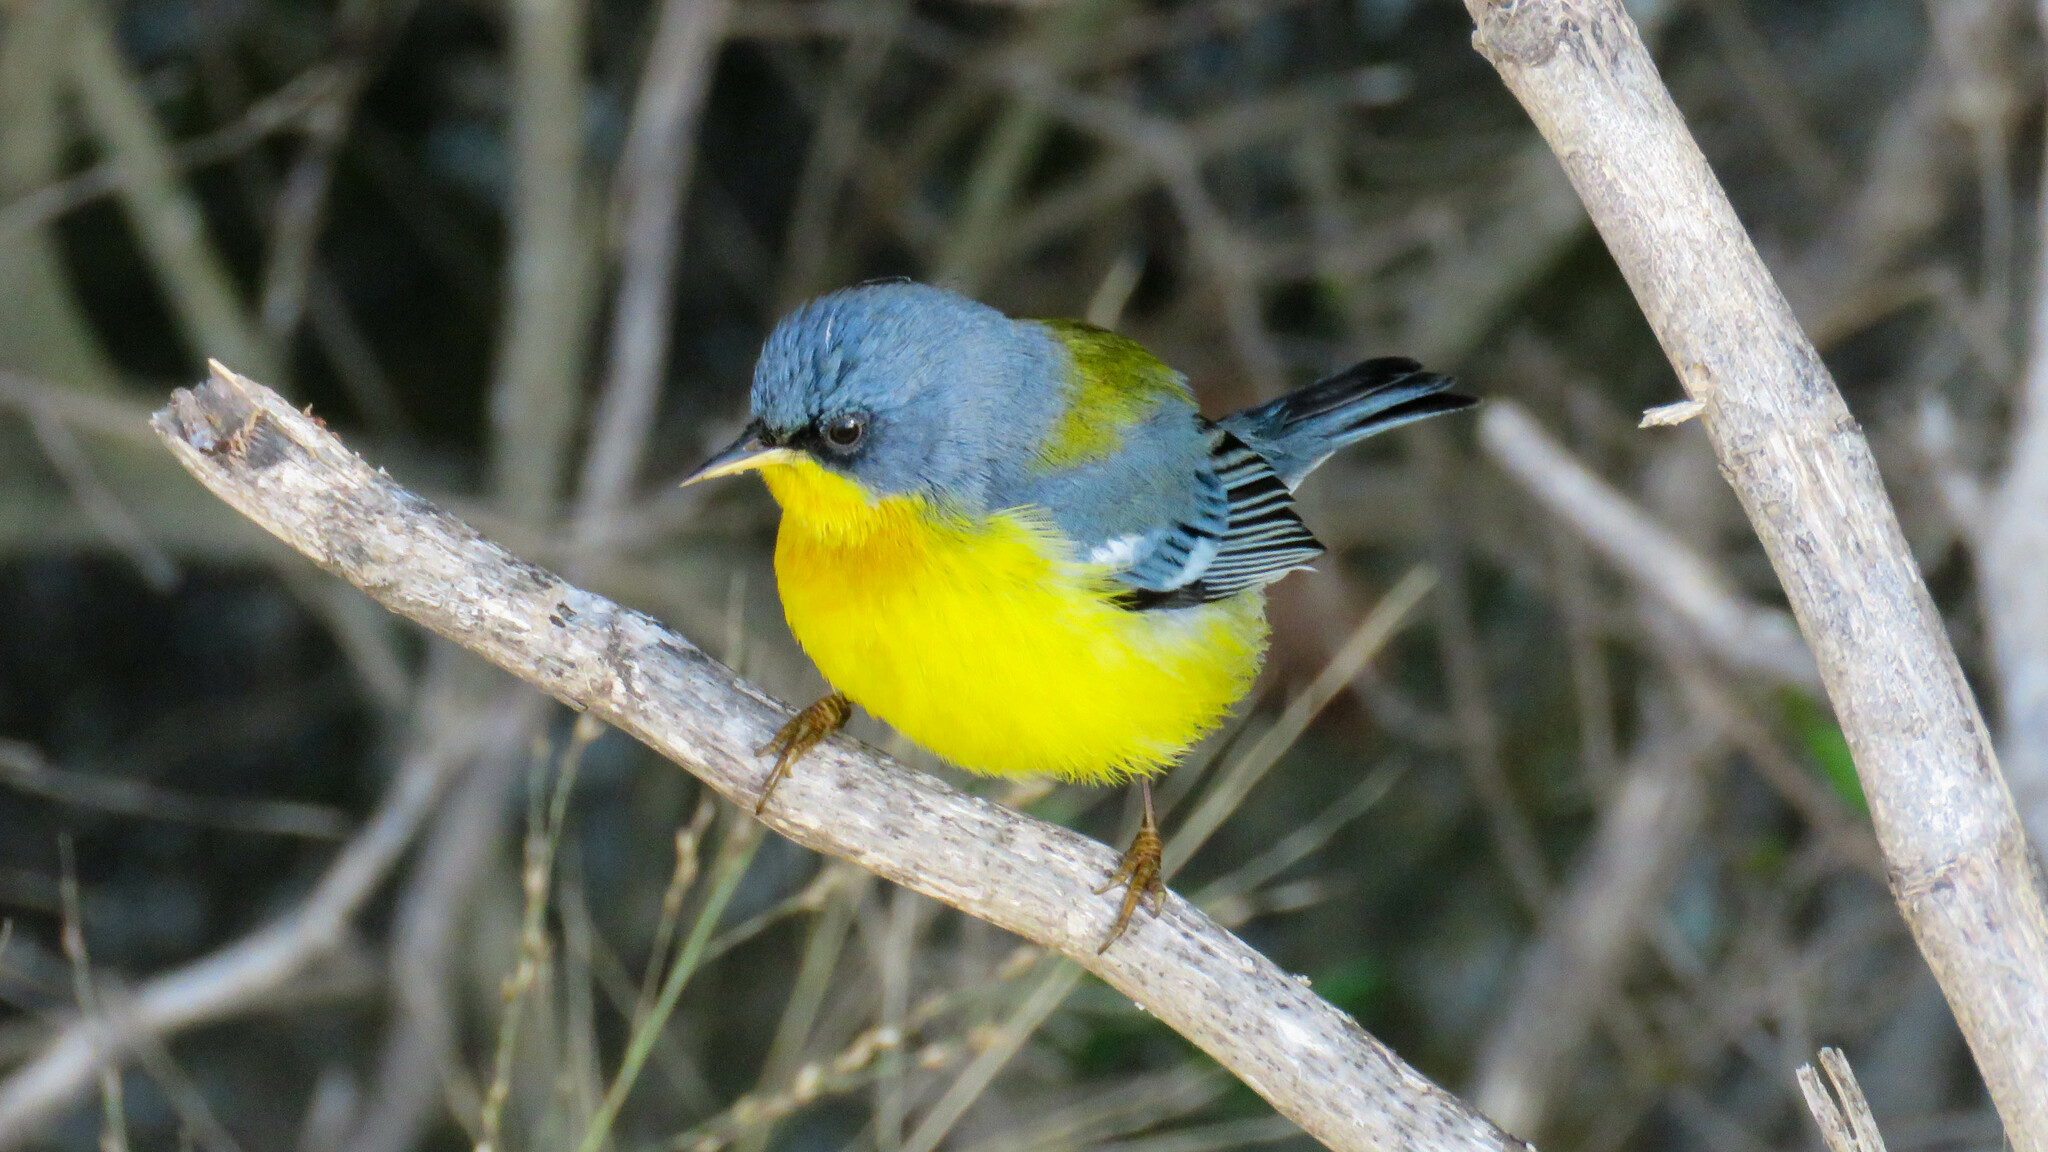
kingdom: Animalia
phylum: Chordata
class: Aves
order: Passeriformes
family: Parulidae
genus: Setophaga
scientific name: Setophaga pitiayumi
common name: Tropical parula
